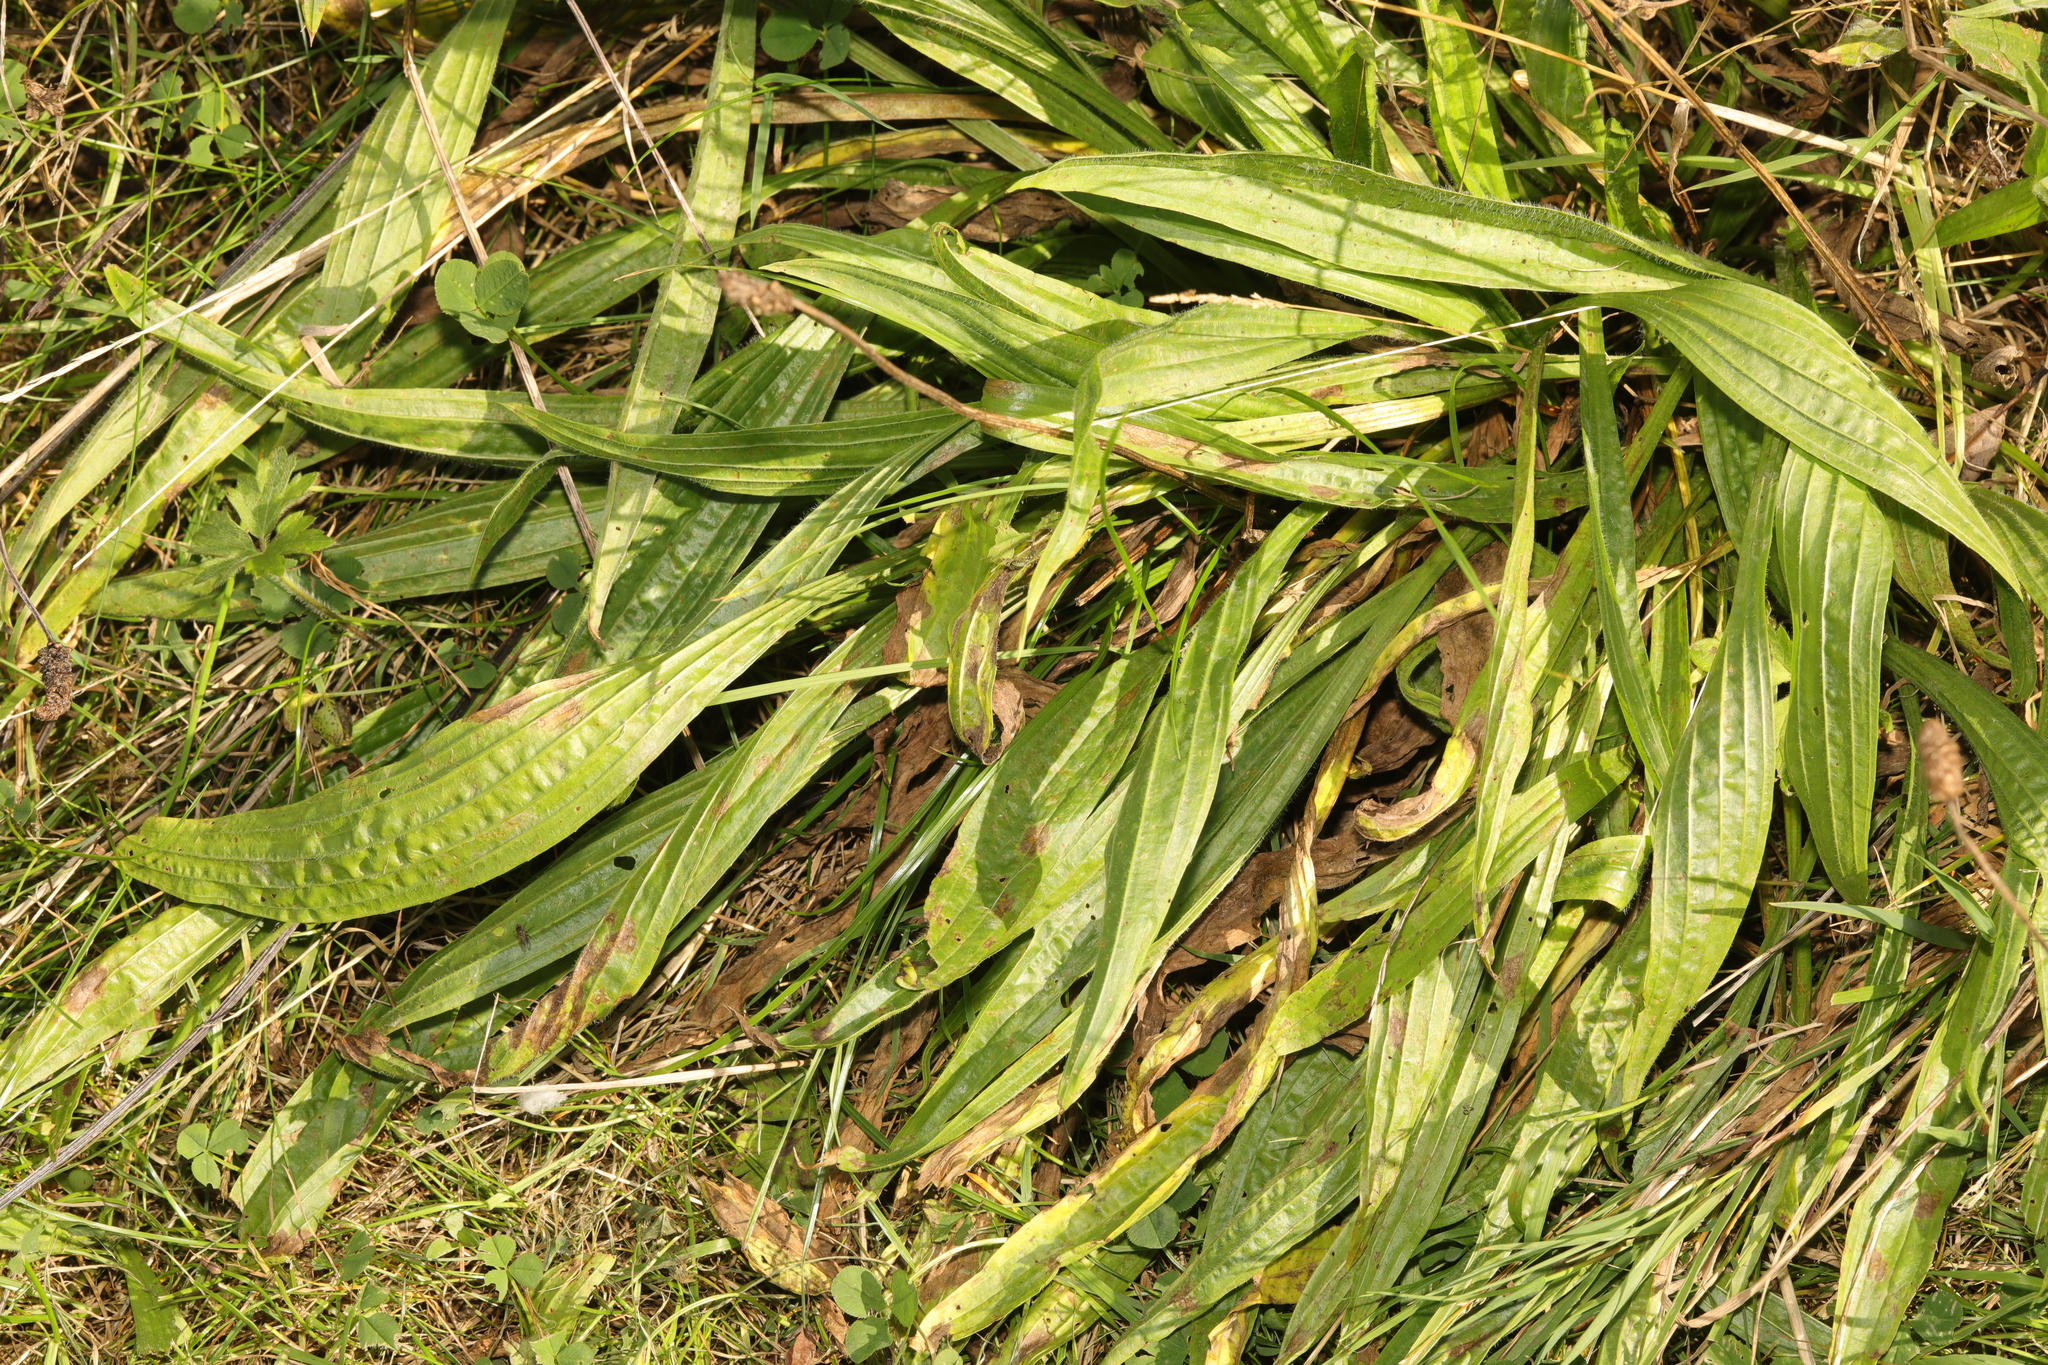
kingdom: Plantae
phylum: Tracheophyta
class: Magnoliopsida
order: Lamiales
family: Plantaginaceae
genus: Plantago
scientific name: Plantago lanceolata
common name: Ribwort plantain
